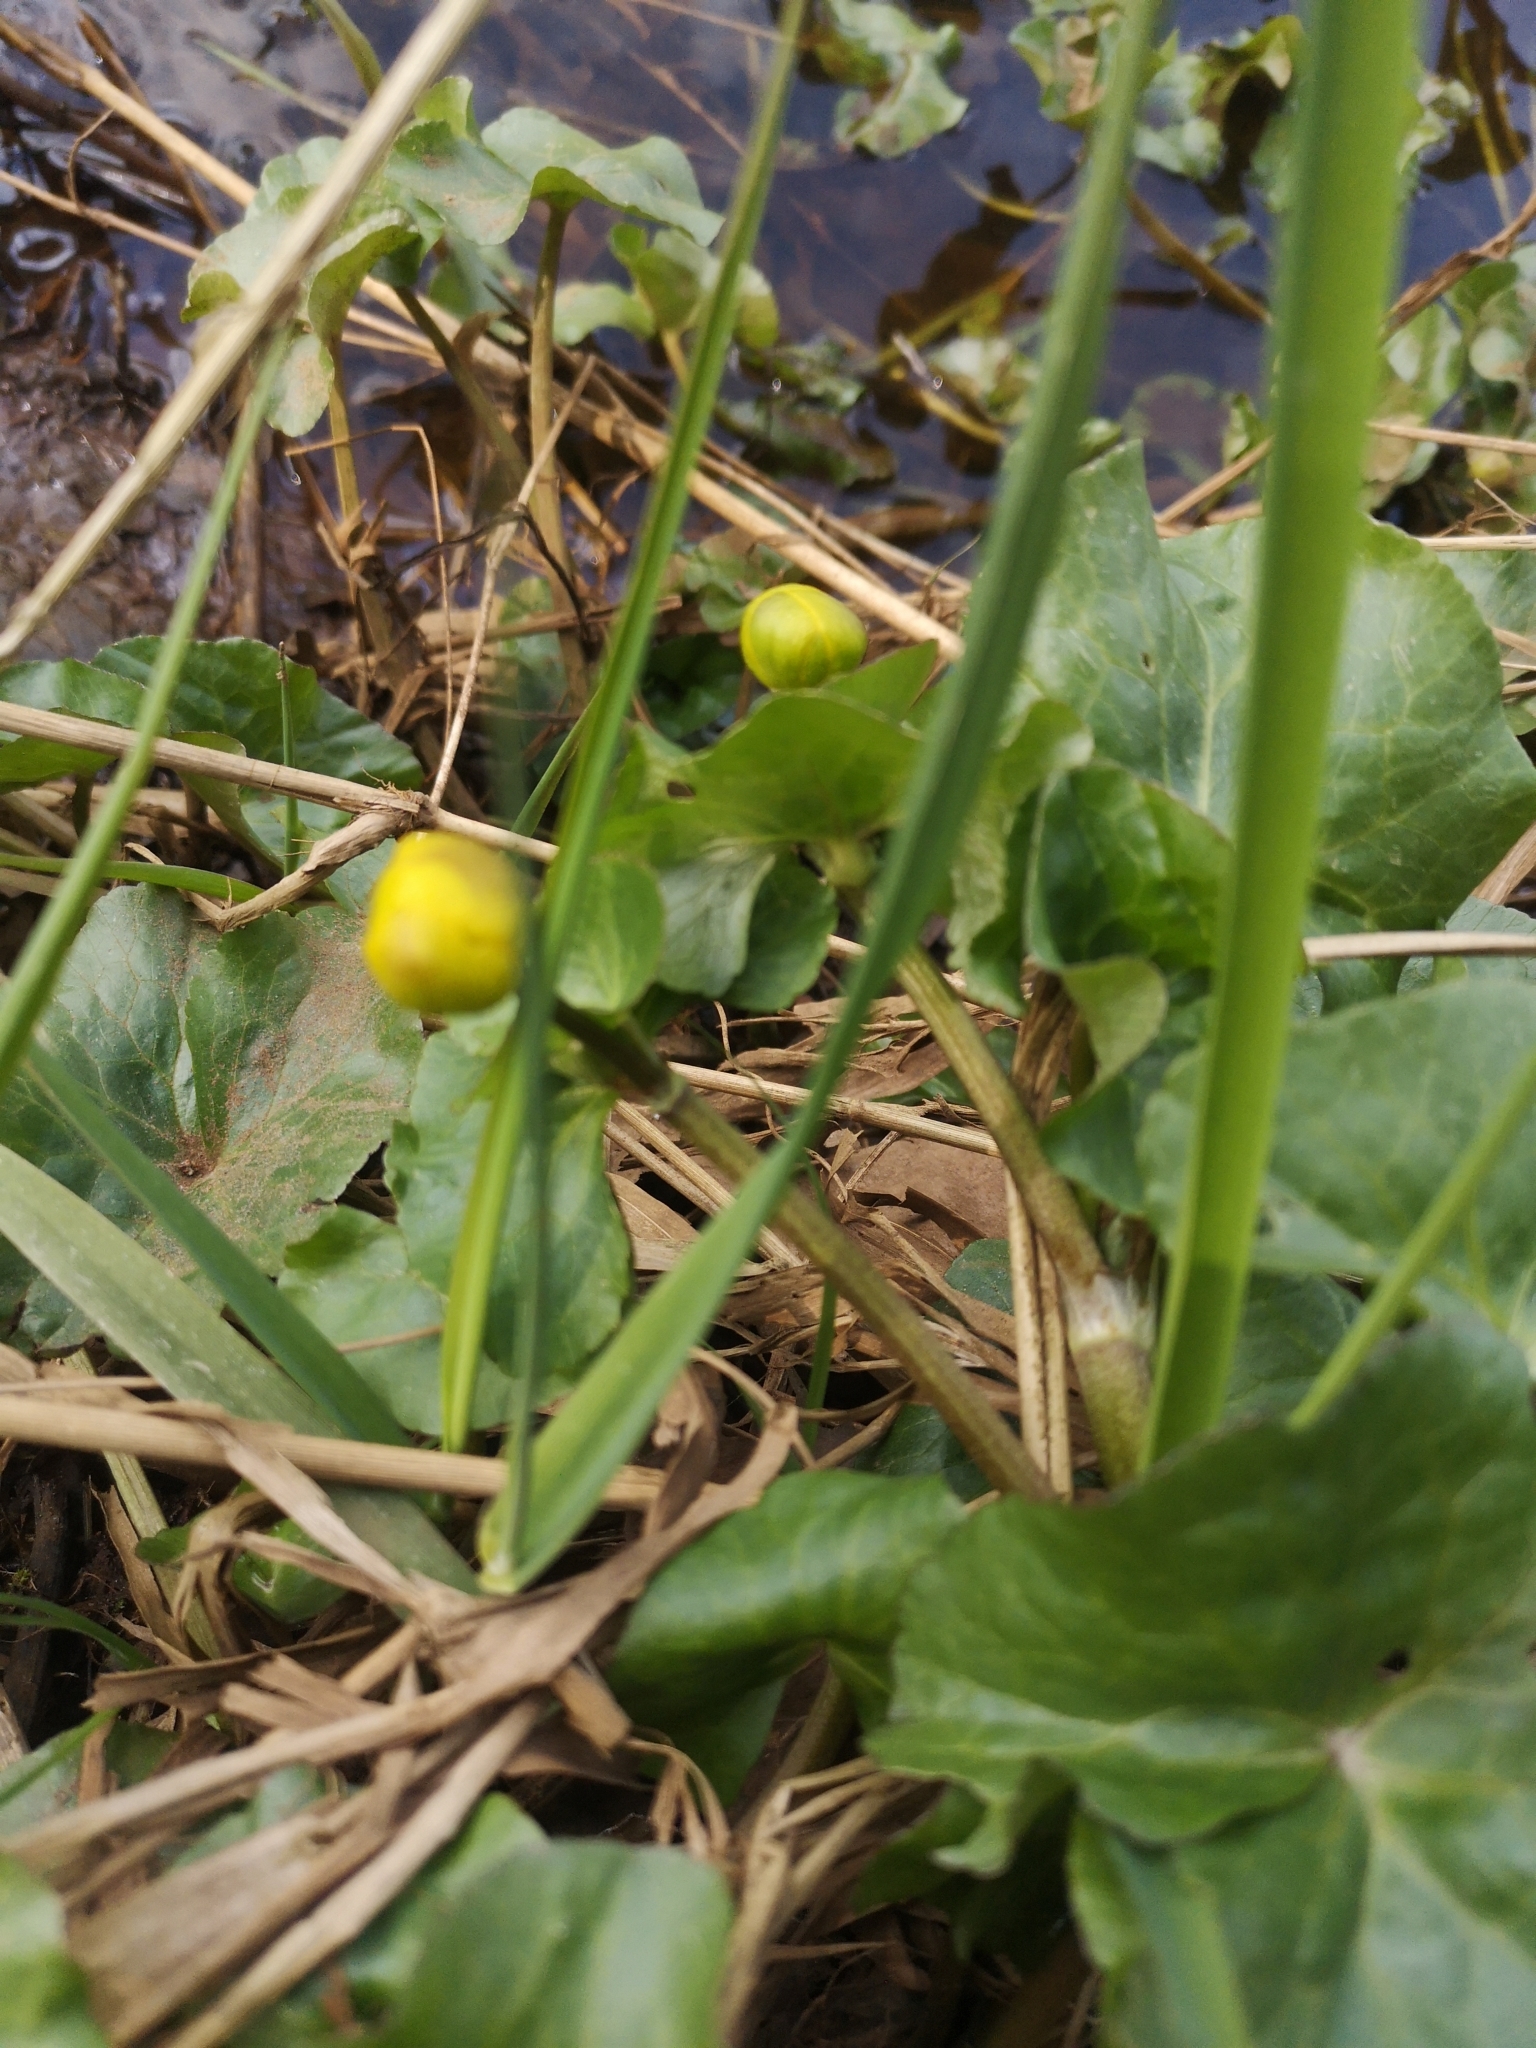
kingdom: Plantae
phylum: Tracheophyta
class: Magnoliopsida
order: Ranunculales
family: Ranunculaceae
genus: Caltha
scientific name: Caltha palustris
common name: Marsh marigold
